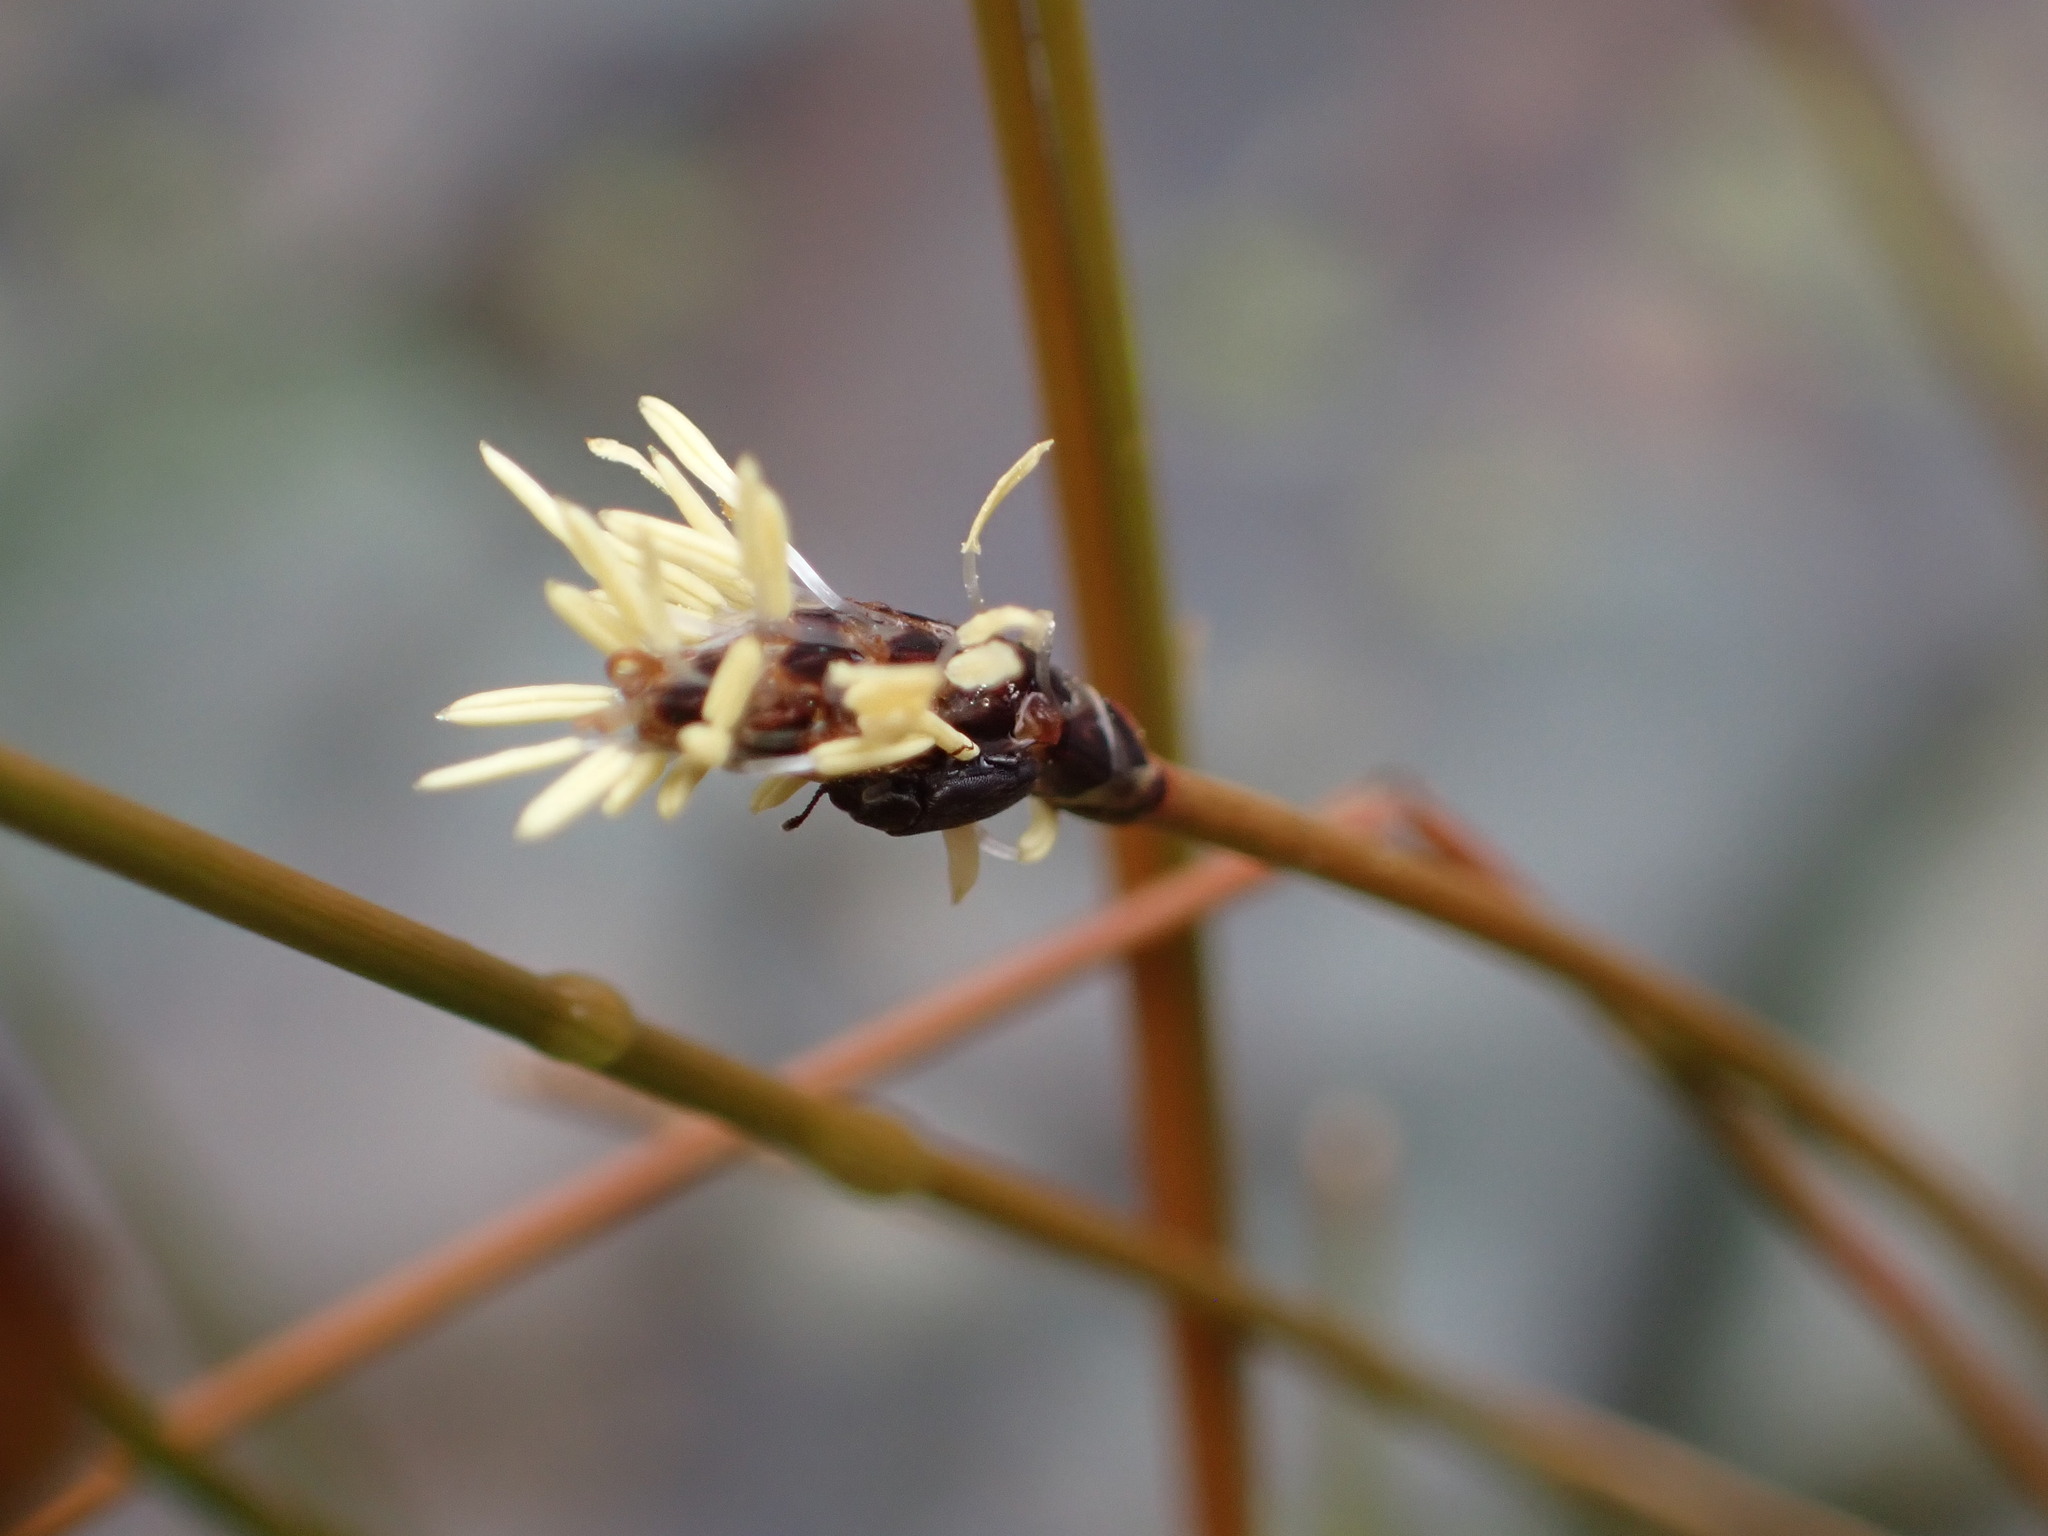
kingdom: Plantae
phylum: Tracheophyta
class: Liliopsida
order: Poales
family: Cyperaceae
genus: Eleocharis
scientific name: Eleocharis acuta
